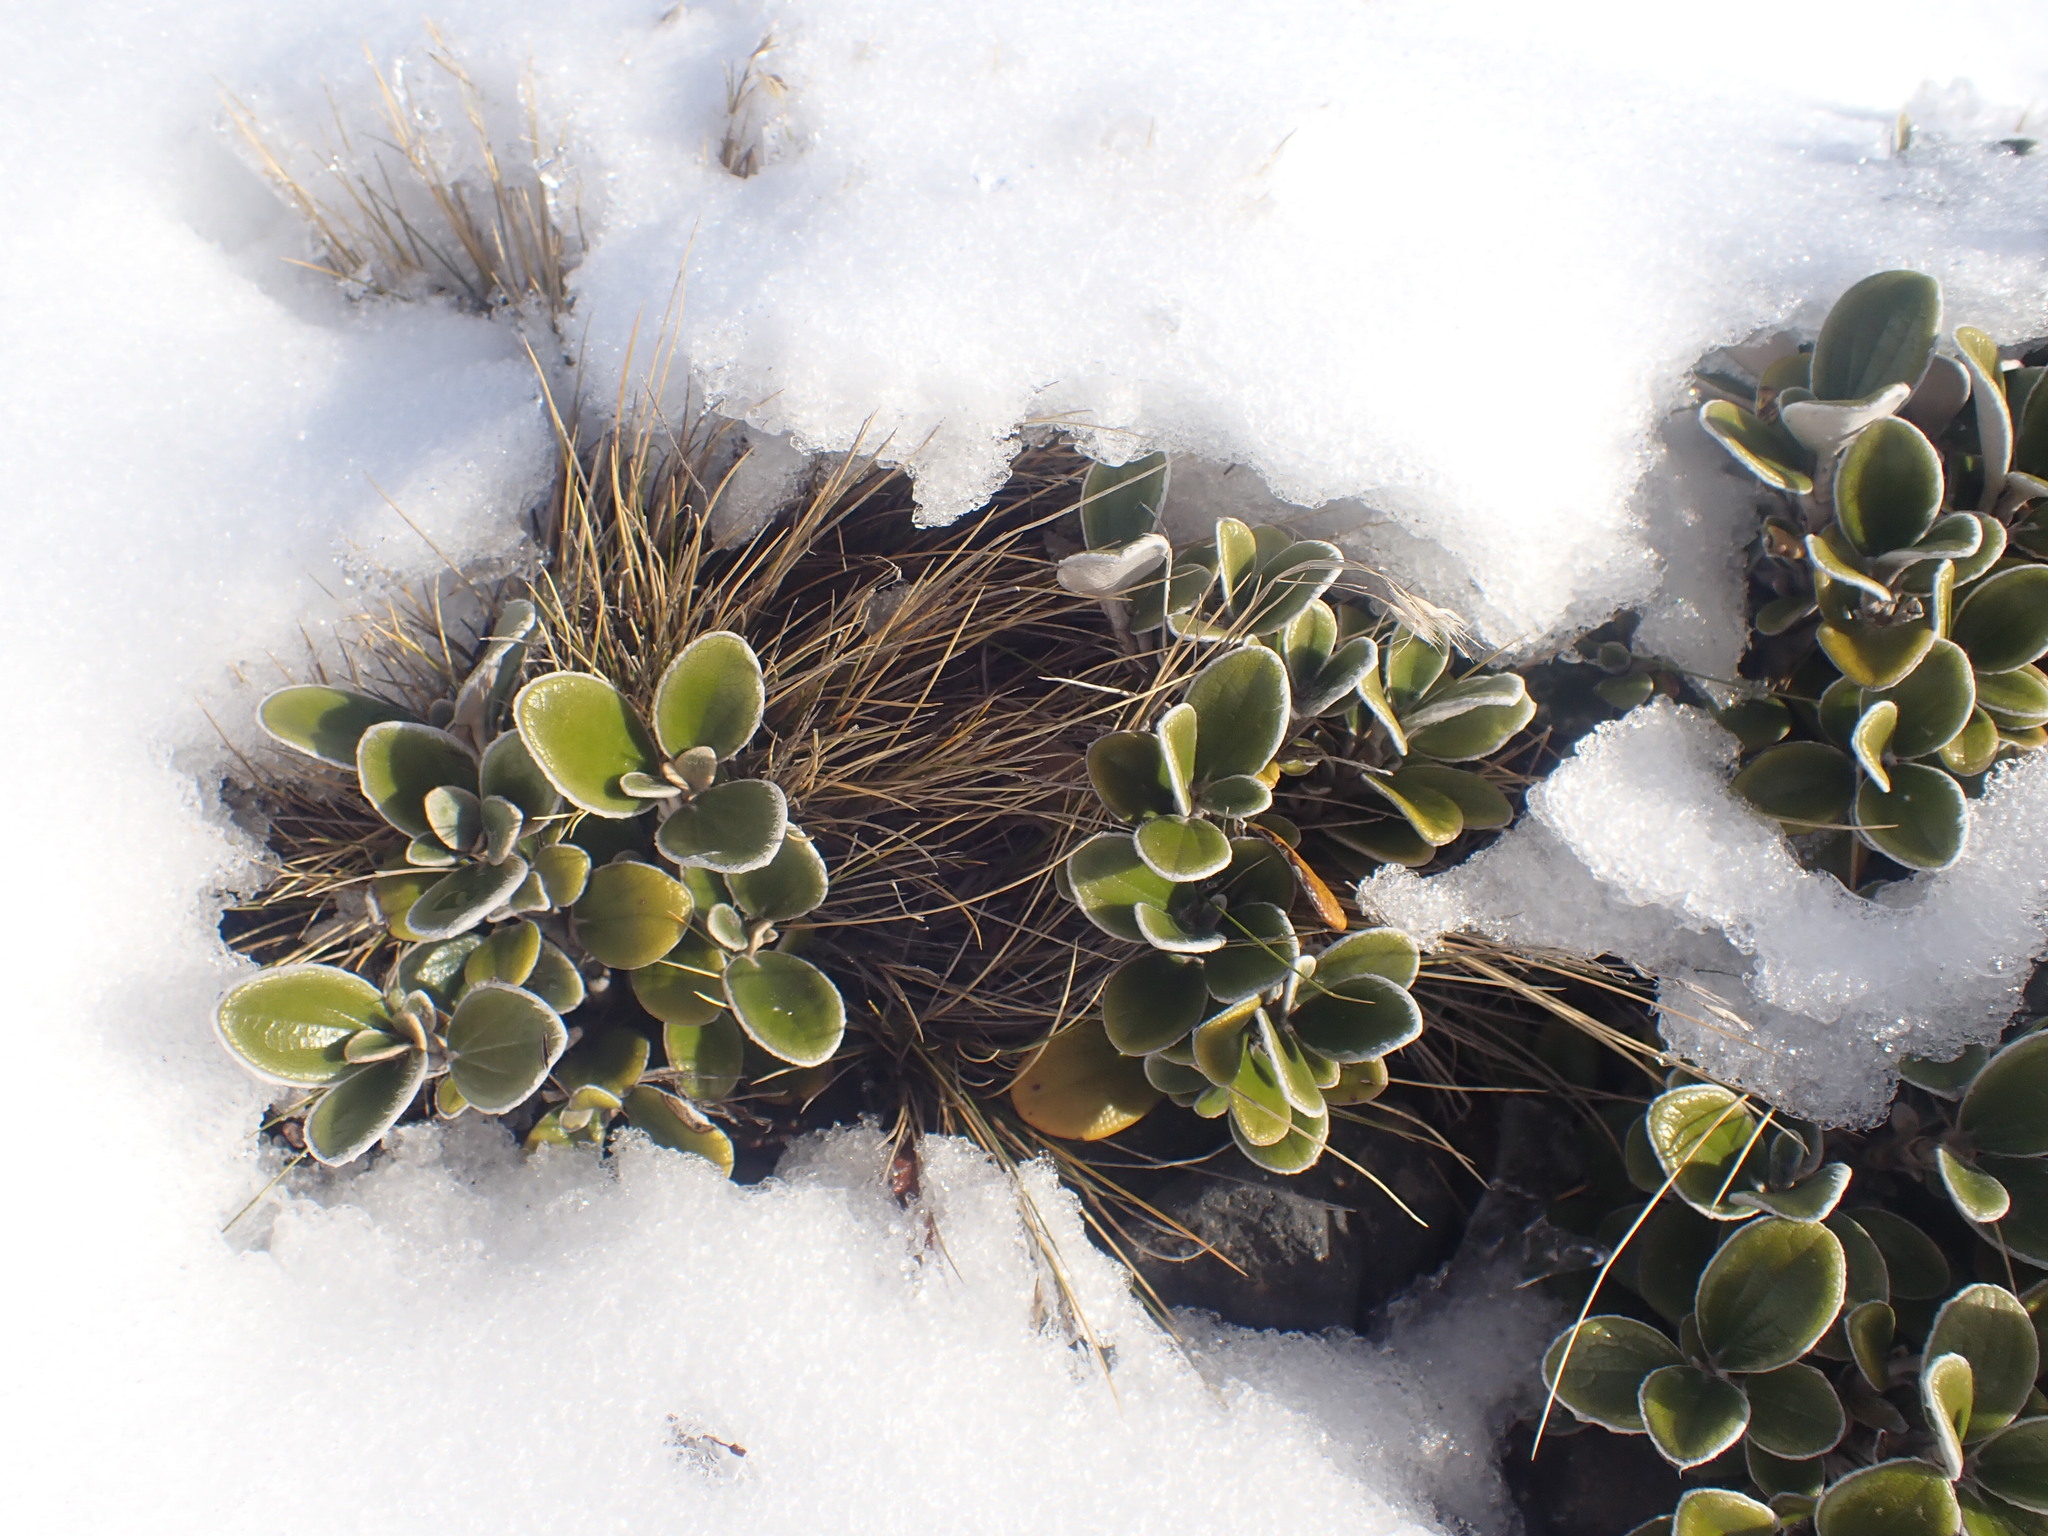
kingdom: Plantae
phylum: Tracheophyta
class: Magnoliopsida
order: Asterales
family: Asteraceae
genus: Brachyglottis
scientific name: Brachyglottis bidwillii
